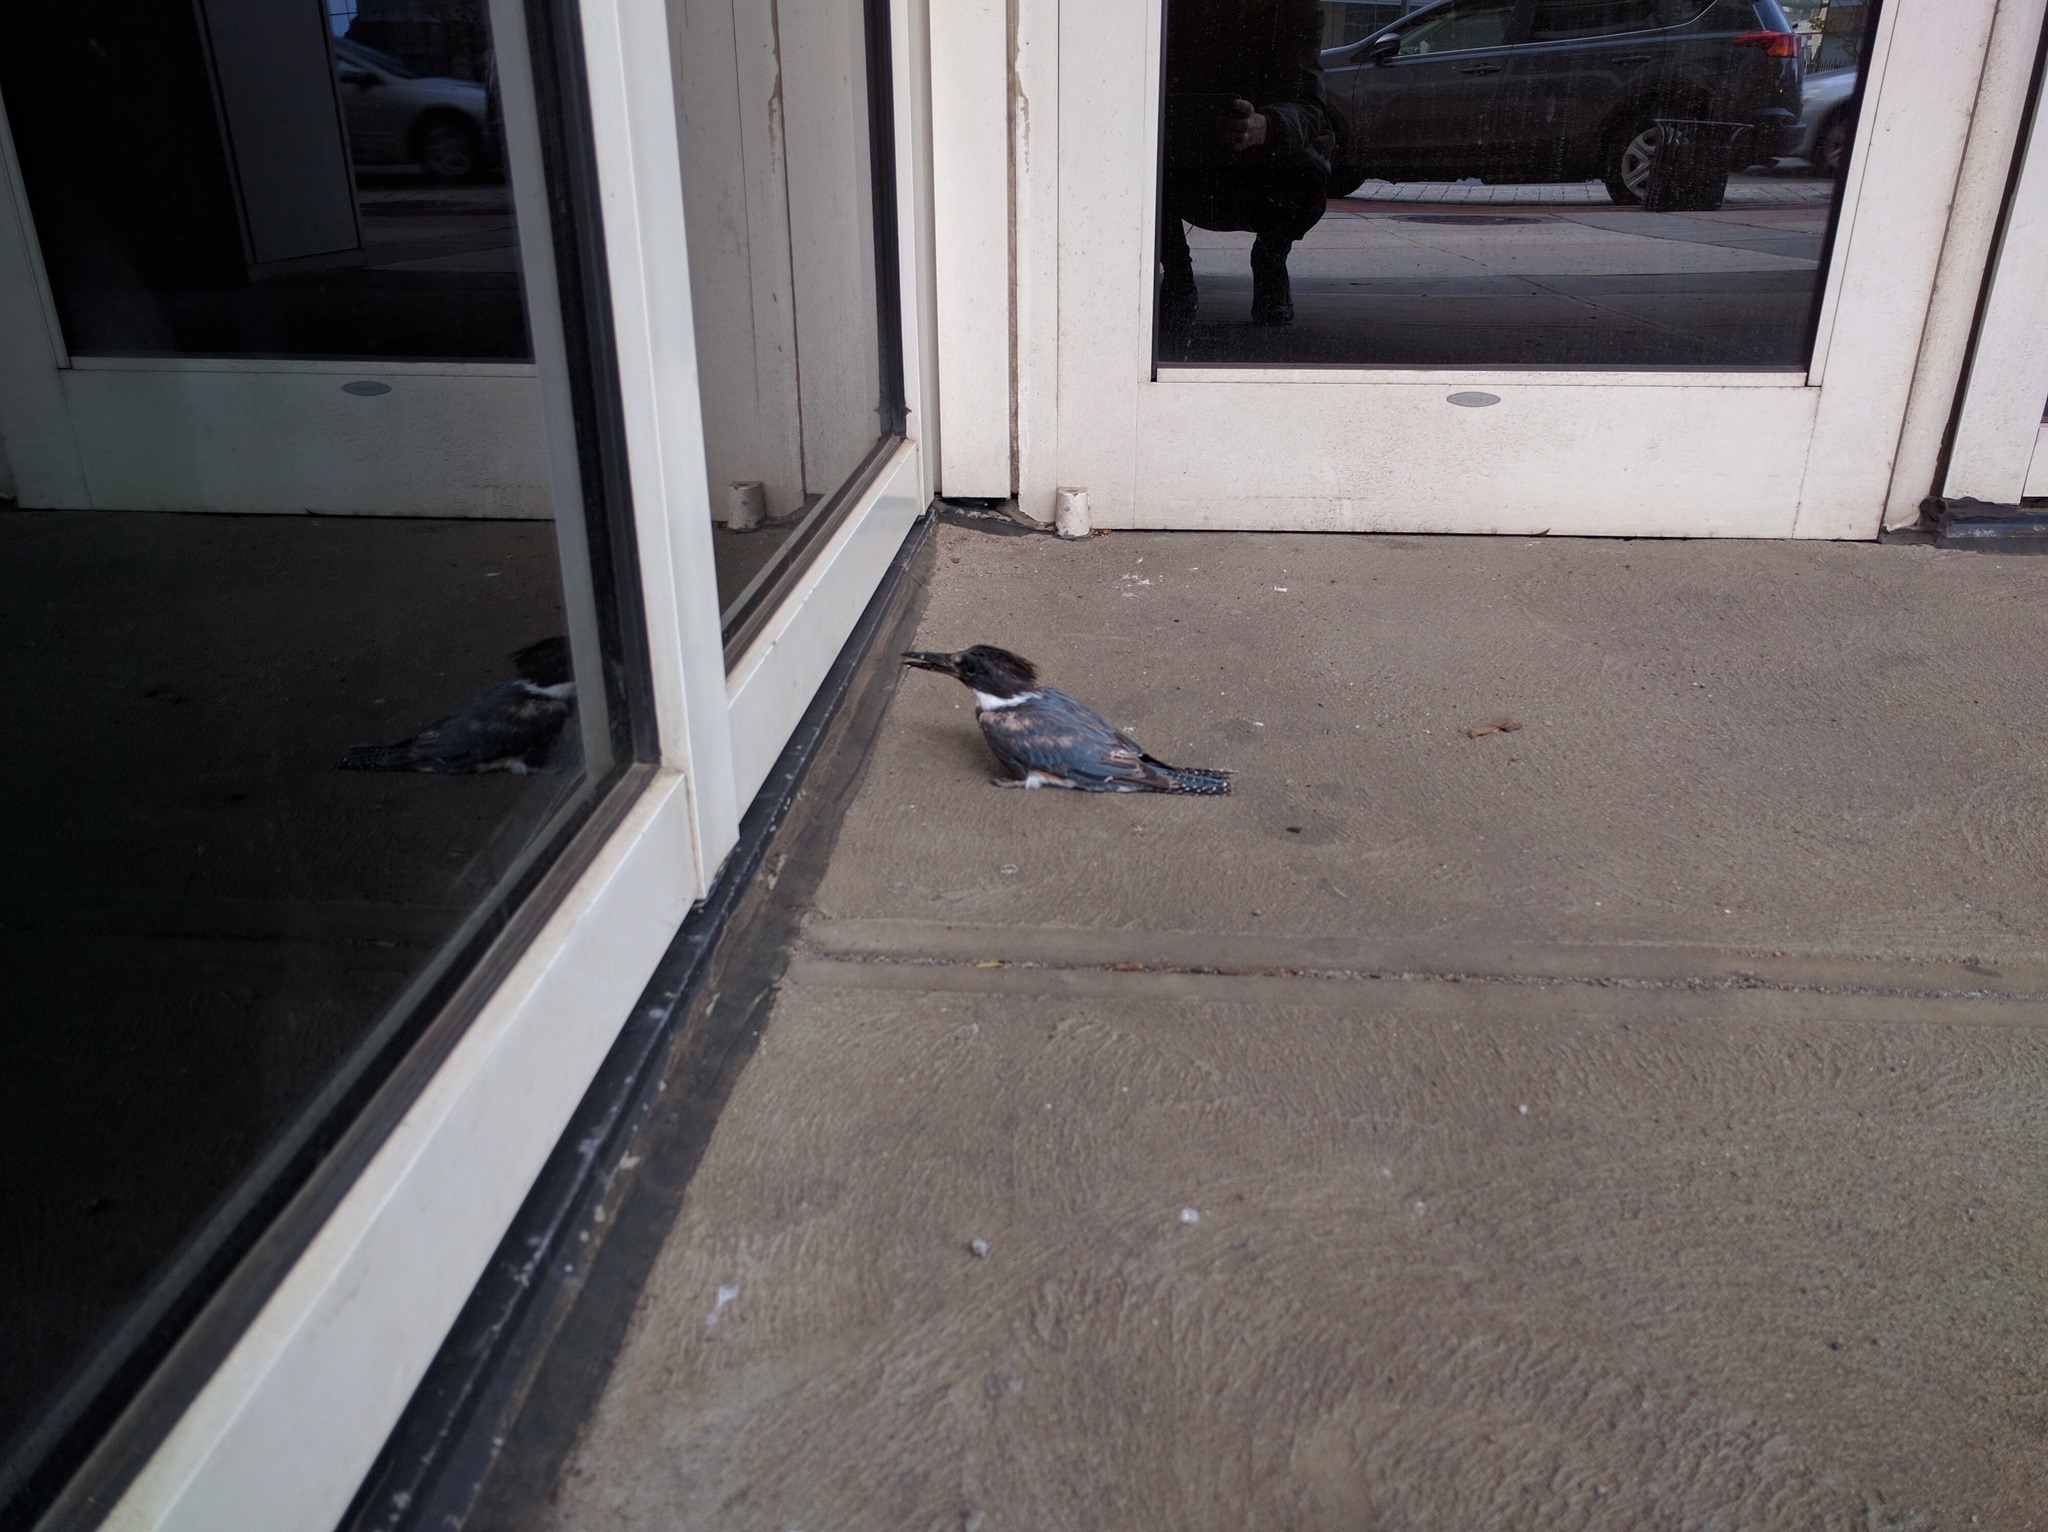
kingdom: Animalia
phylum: Chordata
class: Aves
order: Coraciiformes
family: Alcedinidae
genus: Megaceryle
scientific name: Megaceryle alcyon
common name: Belted kingfisher
